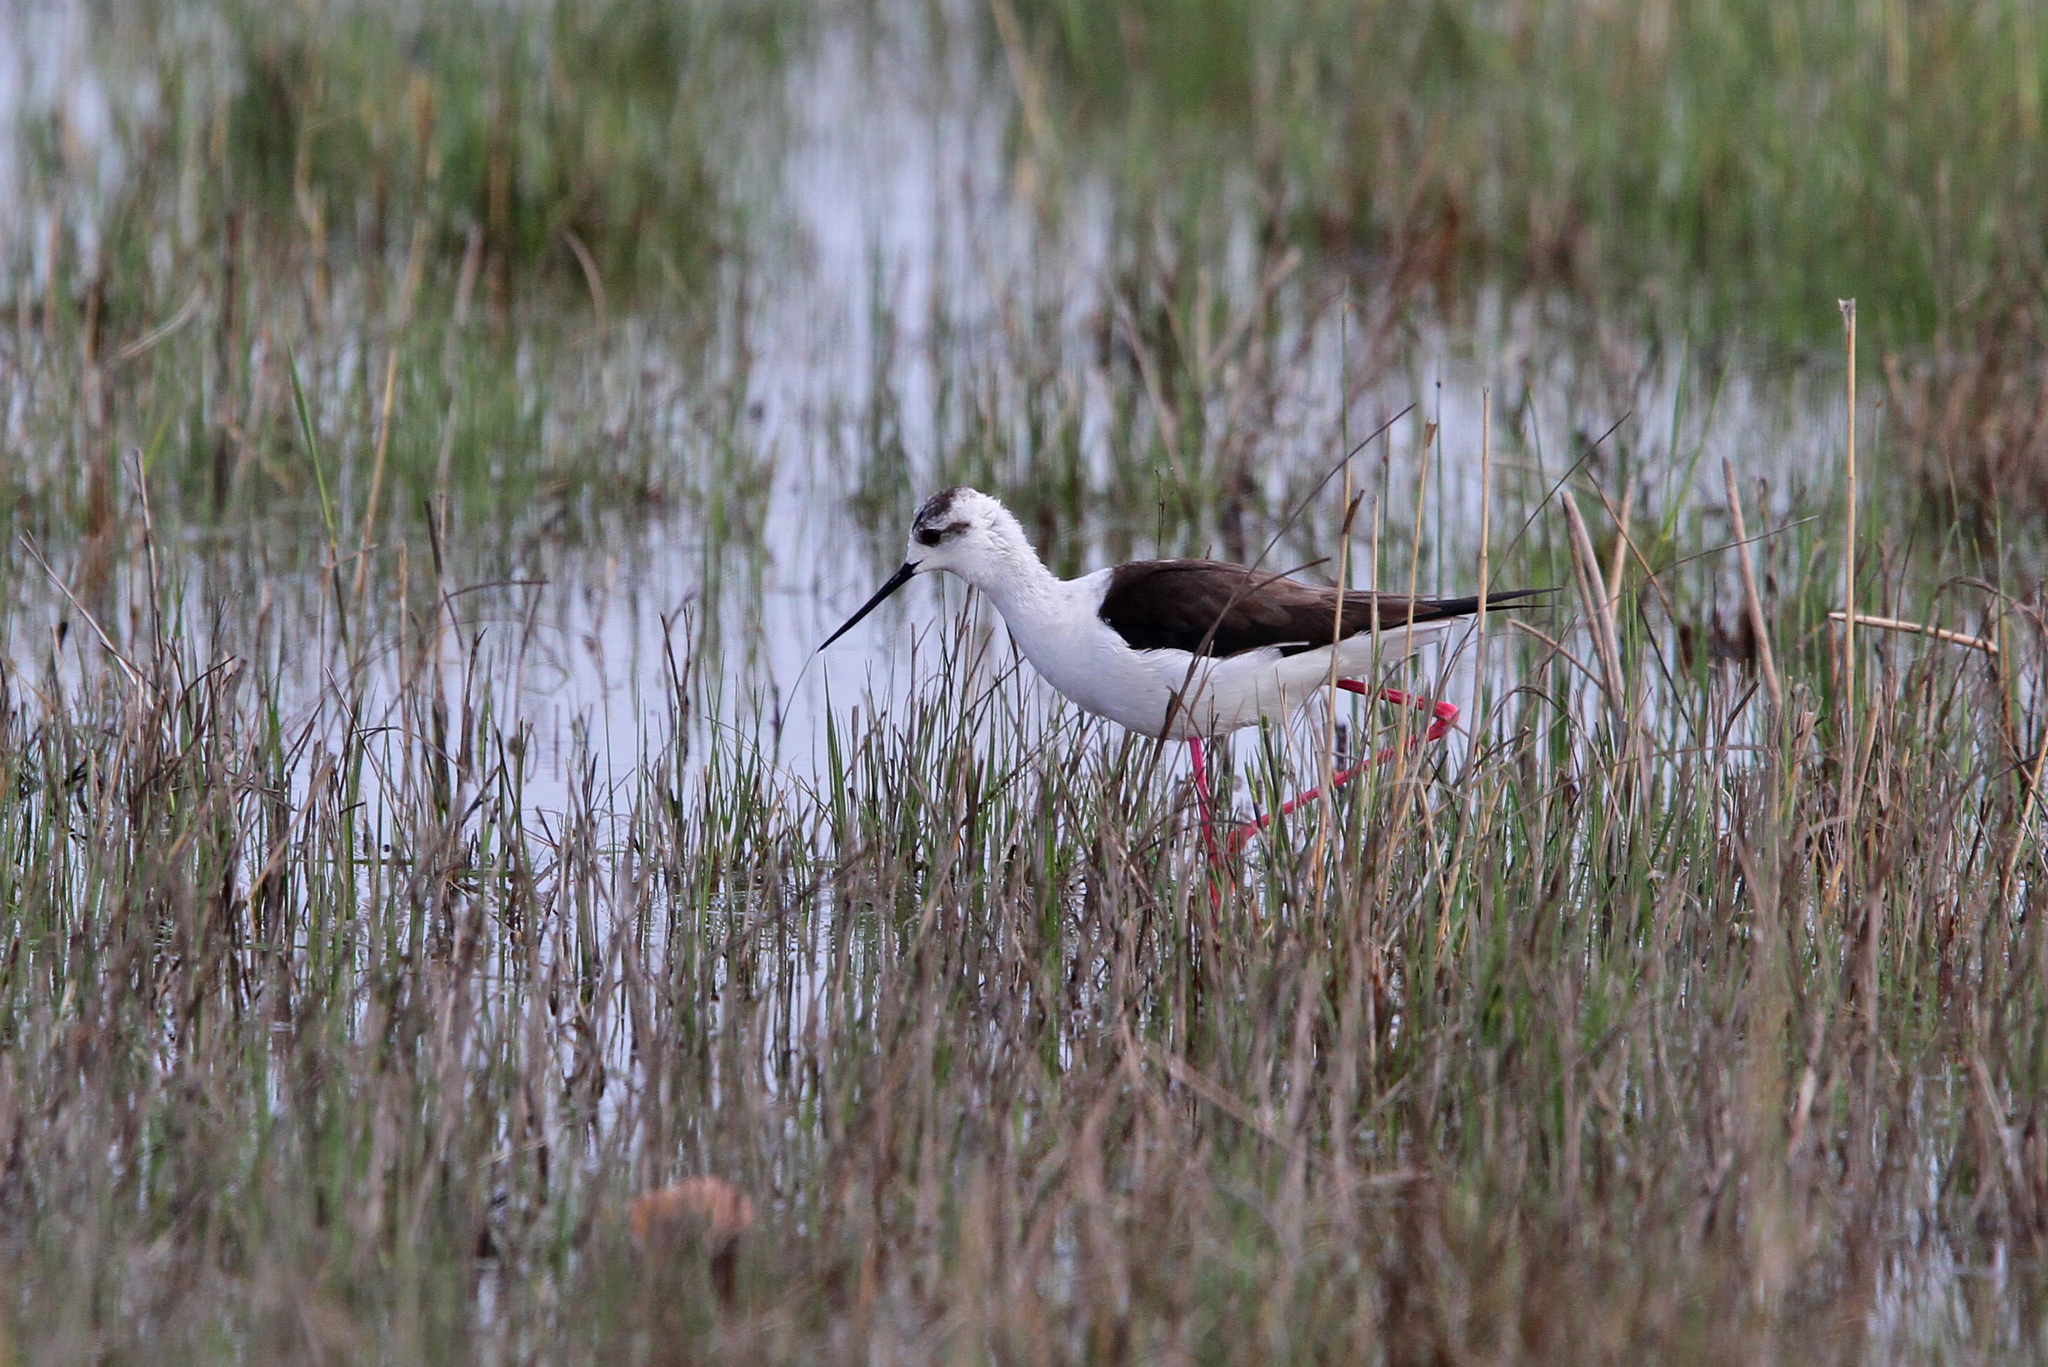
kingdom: Animalia
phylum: Chordata
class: Aves
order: Charadriiformes
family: Recurvirostridae
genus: Himantopus
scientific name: Himantopus himantopus
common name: Black-winged stilt
